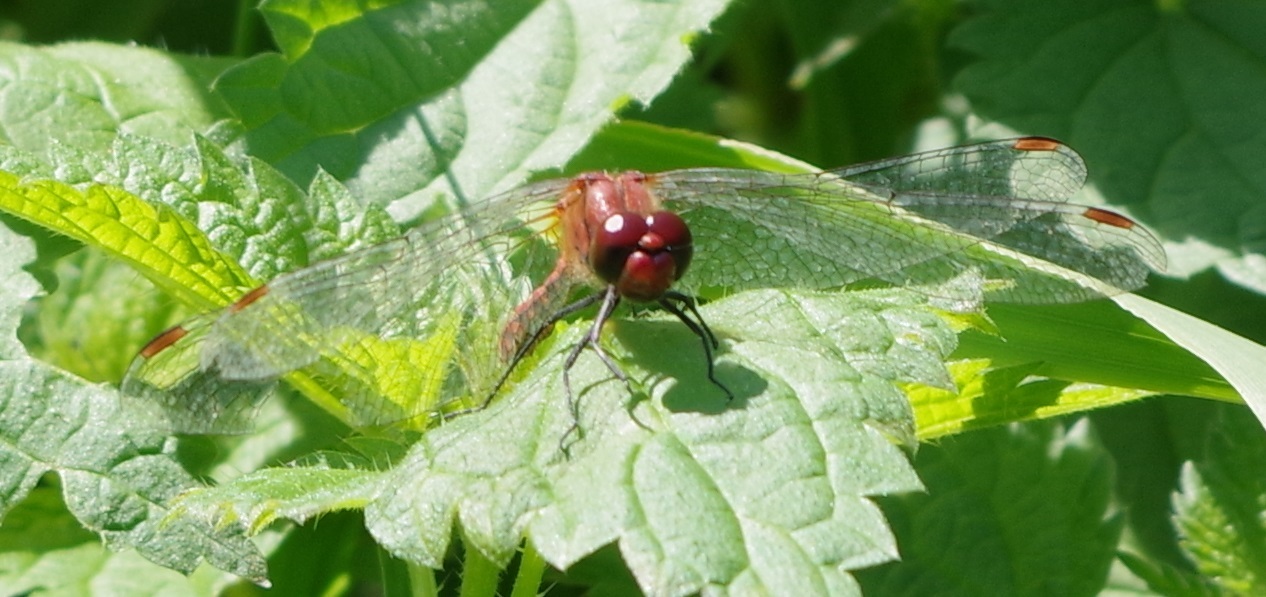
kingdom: Animalia
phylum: Arthropoda
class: Insecta
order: Odonata
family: Libellulidae
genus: Sympetrum
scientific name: Sympetrum sanguineum
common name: Ruddy darter
